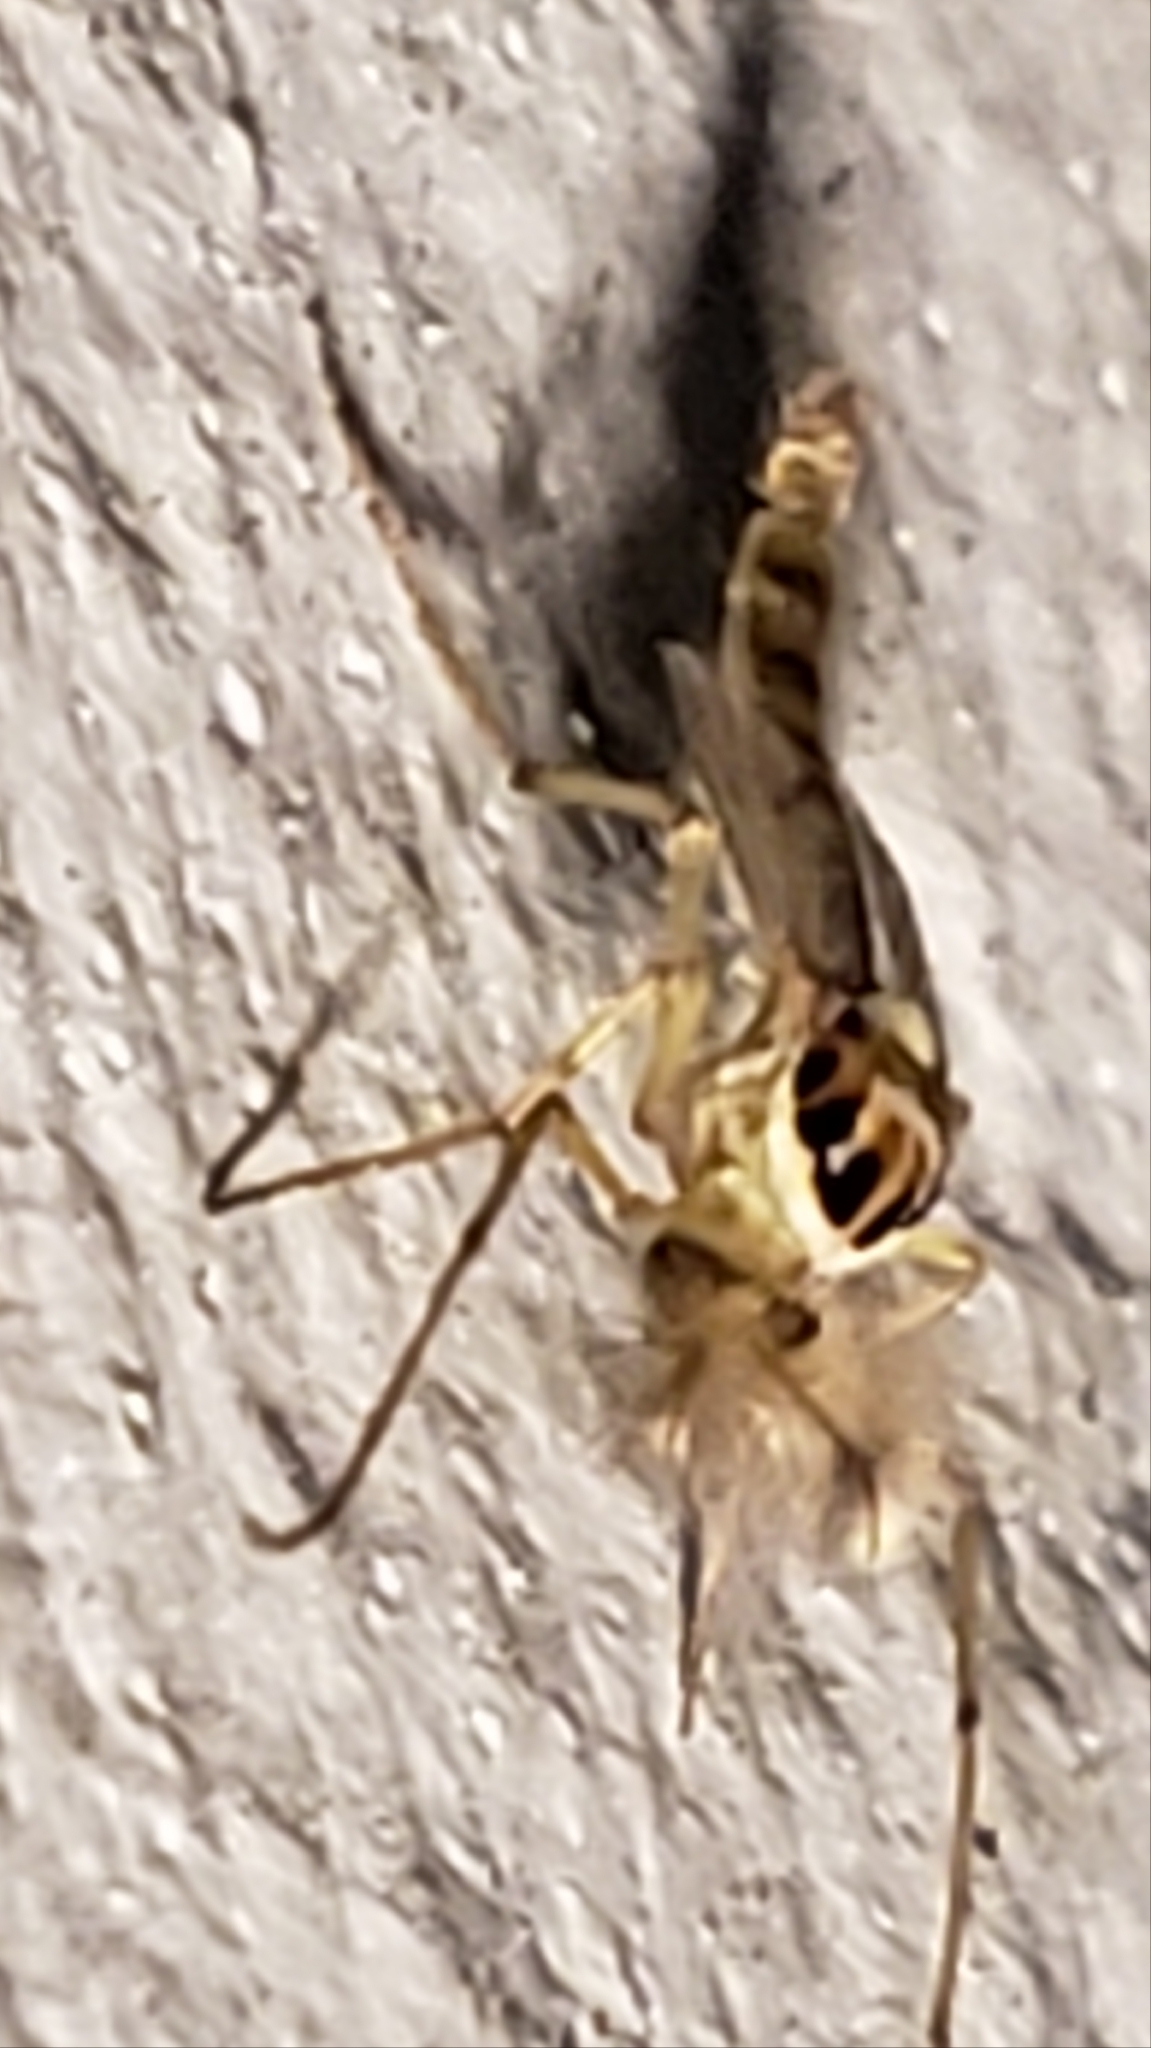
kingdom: Animalia
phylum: Arthropoda
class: Insecta
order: Diptera
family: Chironomidae
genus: Goeldichironomus
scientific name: Goeldichironomus carus
